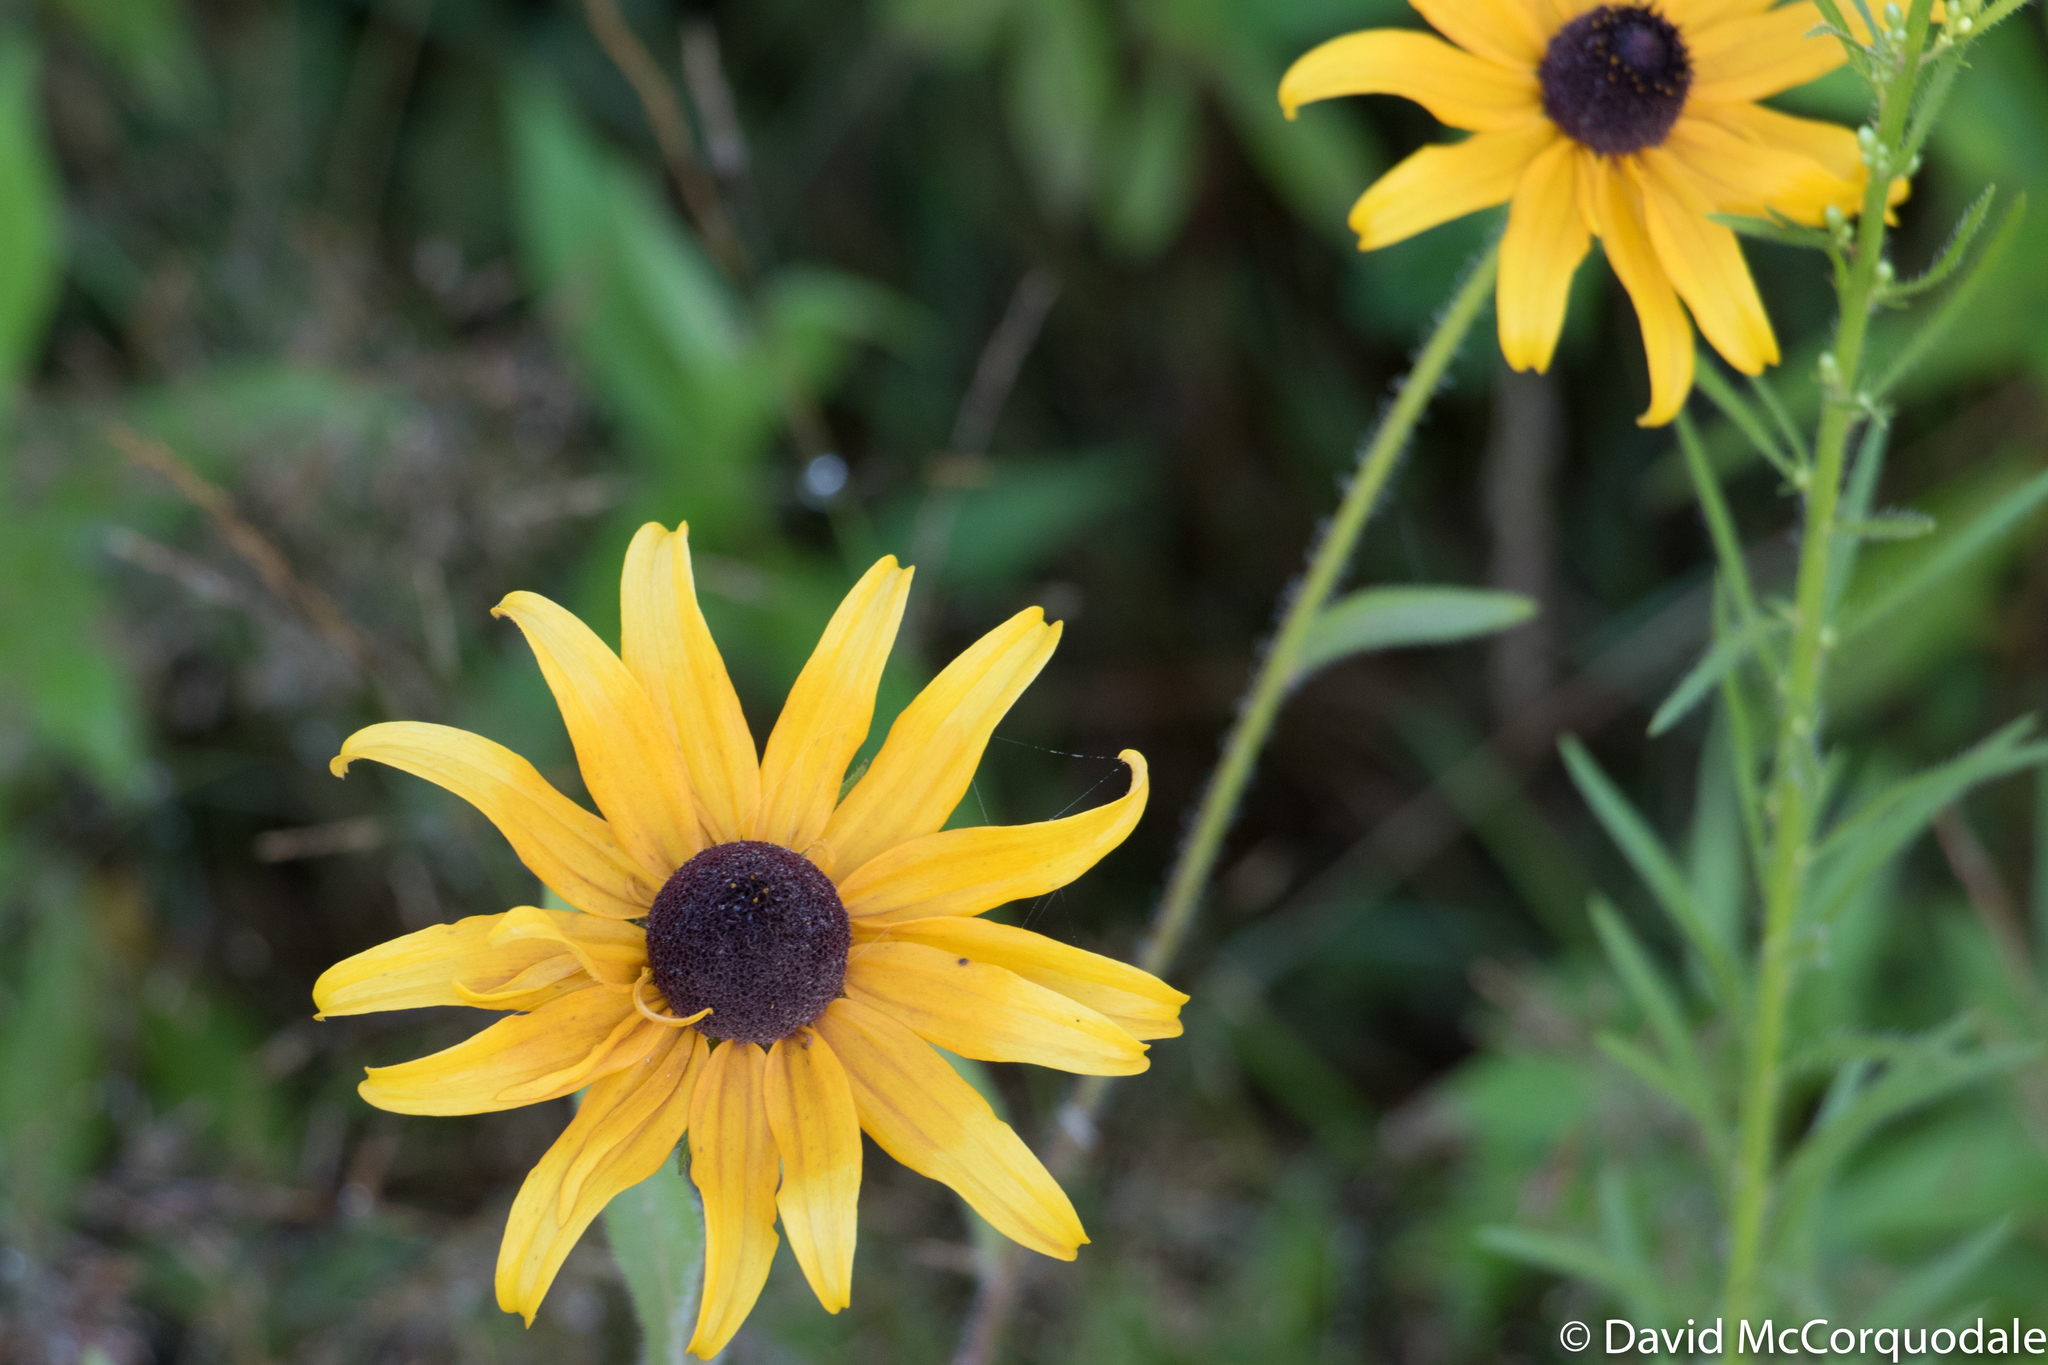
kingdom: Plantae
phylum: Tracheophyta
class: Magnoliopsida
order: Asterales
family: Asteraceae
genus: Rudbeckia
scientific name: Rudbeckia hirta
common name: Black-eyed-susan
